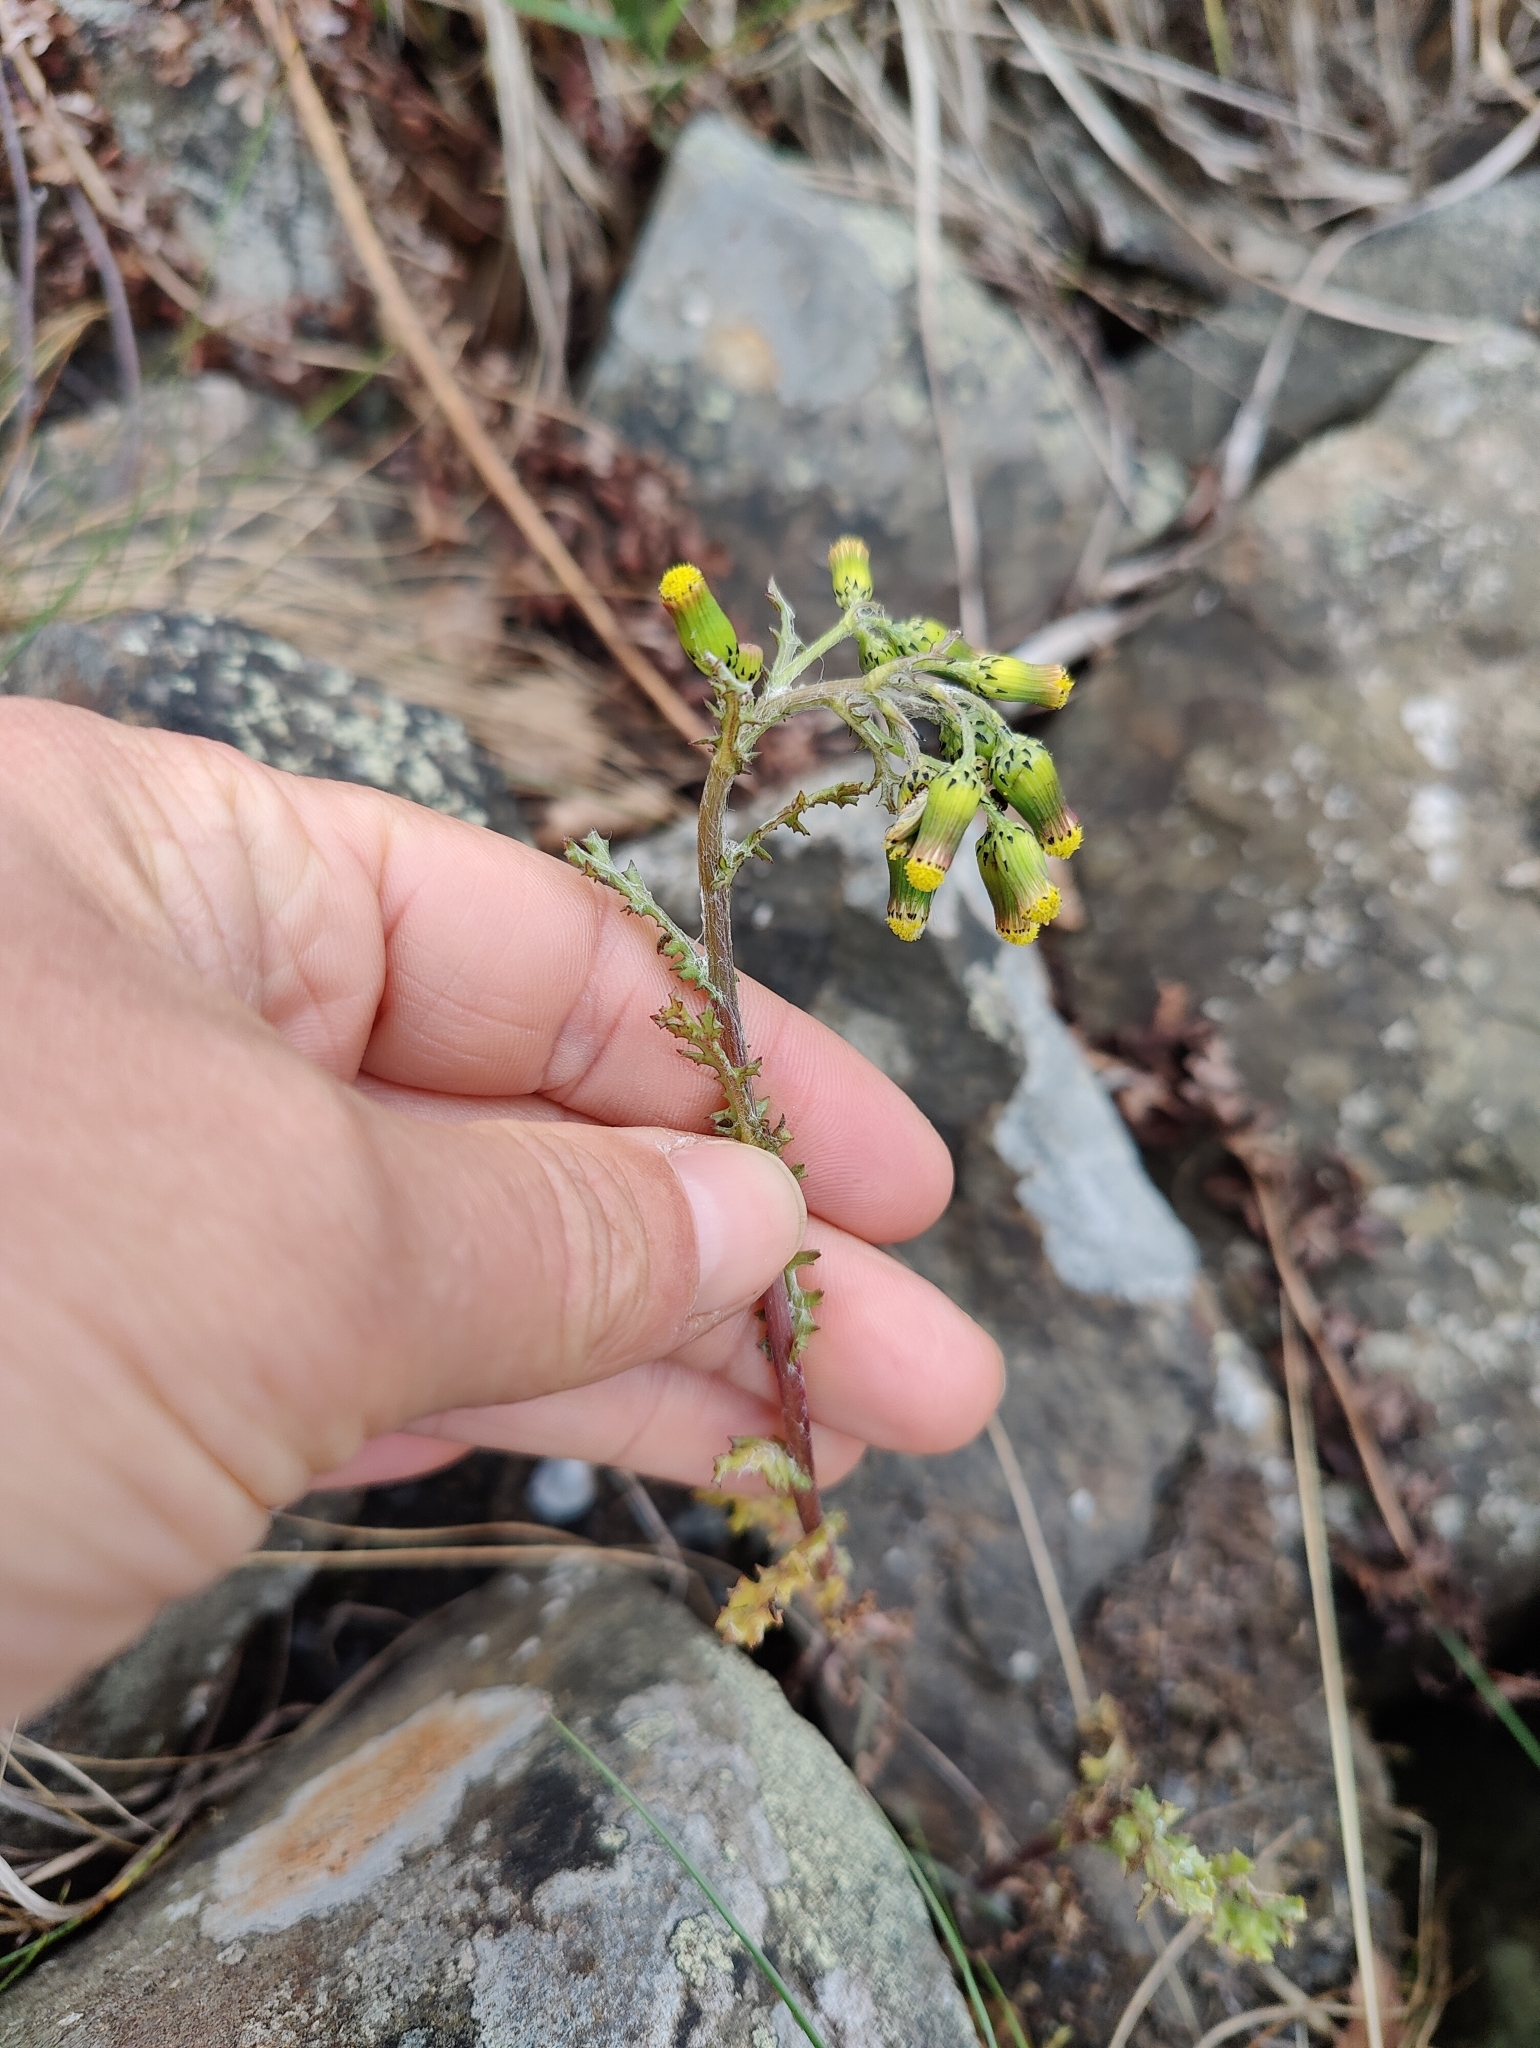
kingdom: Plantae
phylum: Tracheophyta
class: Magnoliopsida
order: Asterales
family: Asteraceae
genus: Senecio
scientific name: Senecio vulgaris
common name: Old-man-in-the-spring
